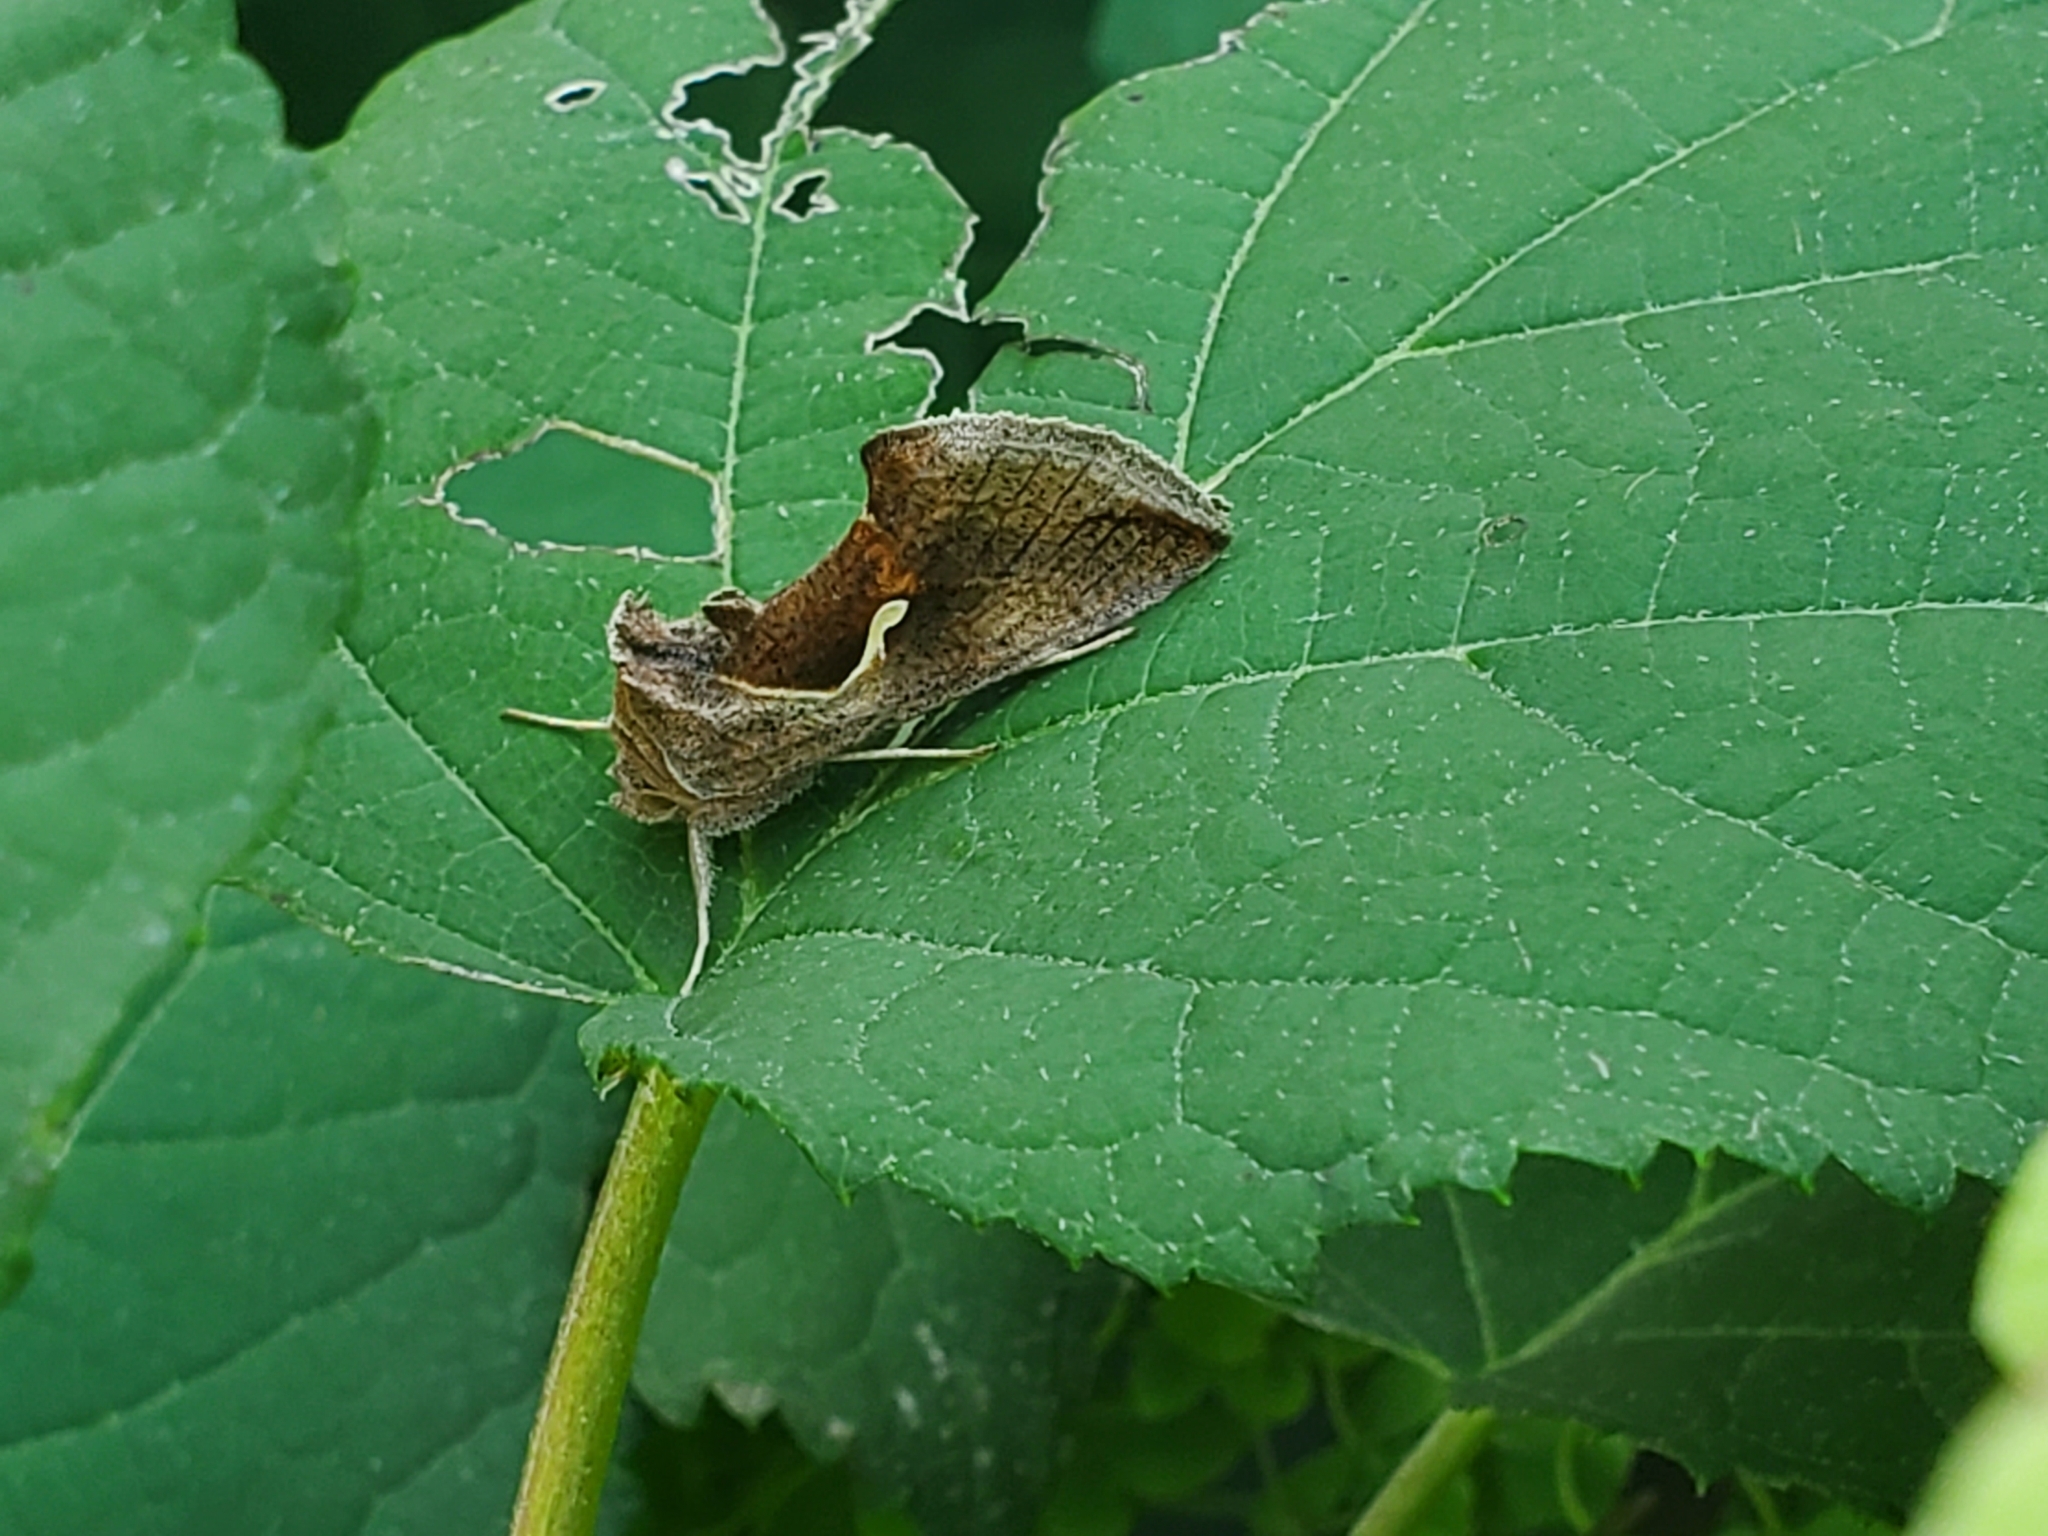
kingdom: Animalia
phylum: Arthropoda
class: Insecta
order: Lepidoptera
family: Noctuidae
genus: Anagrapha
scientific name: Anagrapha falcifera
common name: Celery looper
